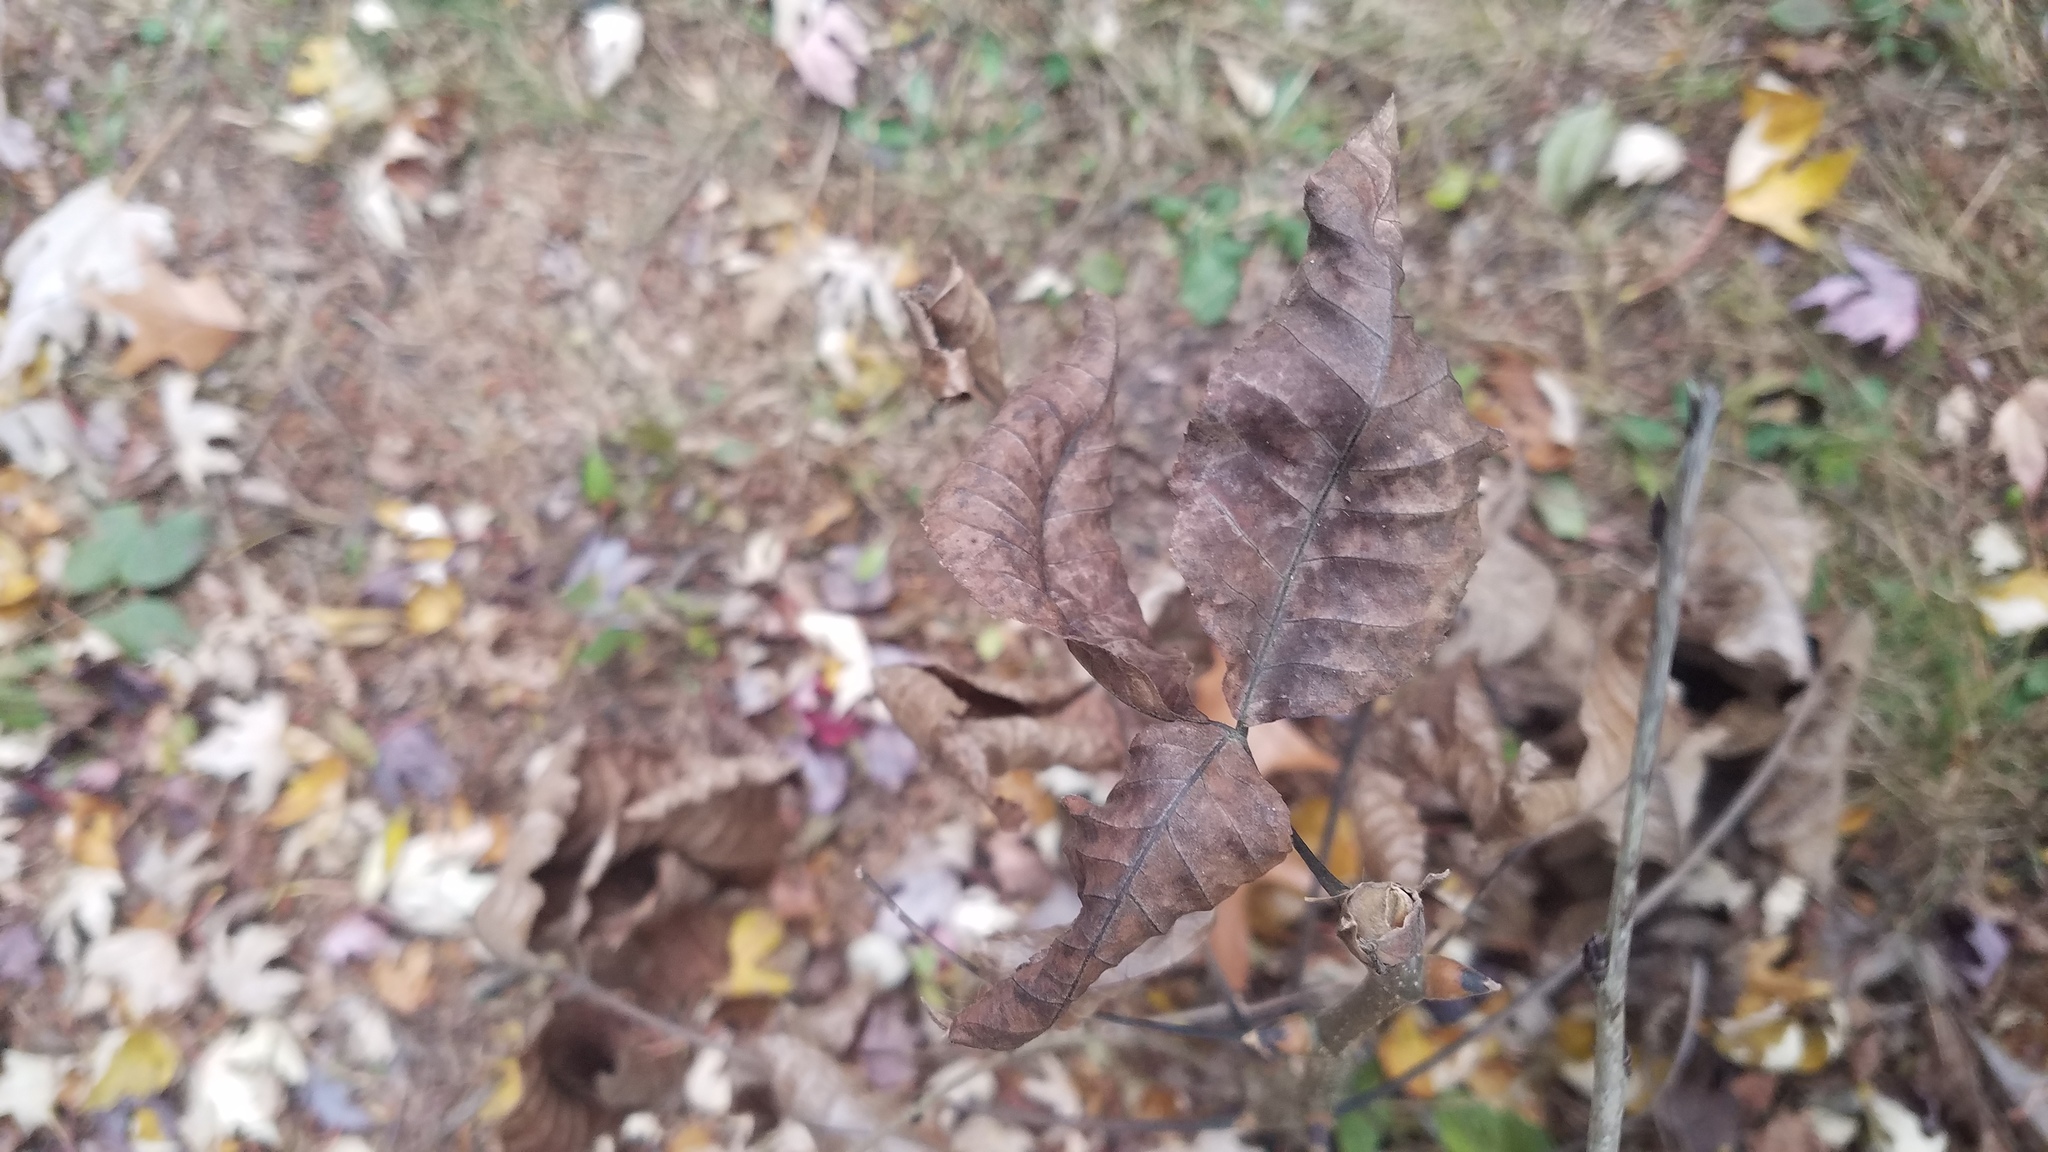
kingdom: Plantae
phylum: Tracheophyta
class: Magnoliopsida
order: Fagales
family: Juglandaceae
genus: Carya
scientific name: Carya ovata
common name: Shagbark hickory
